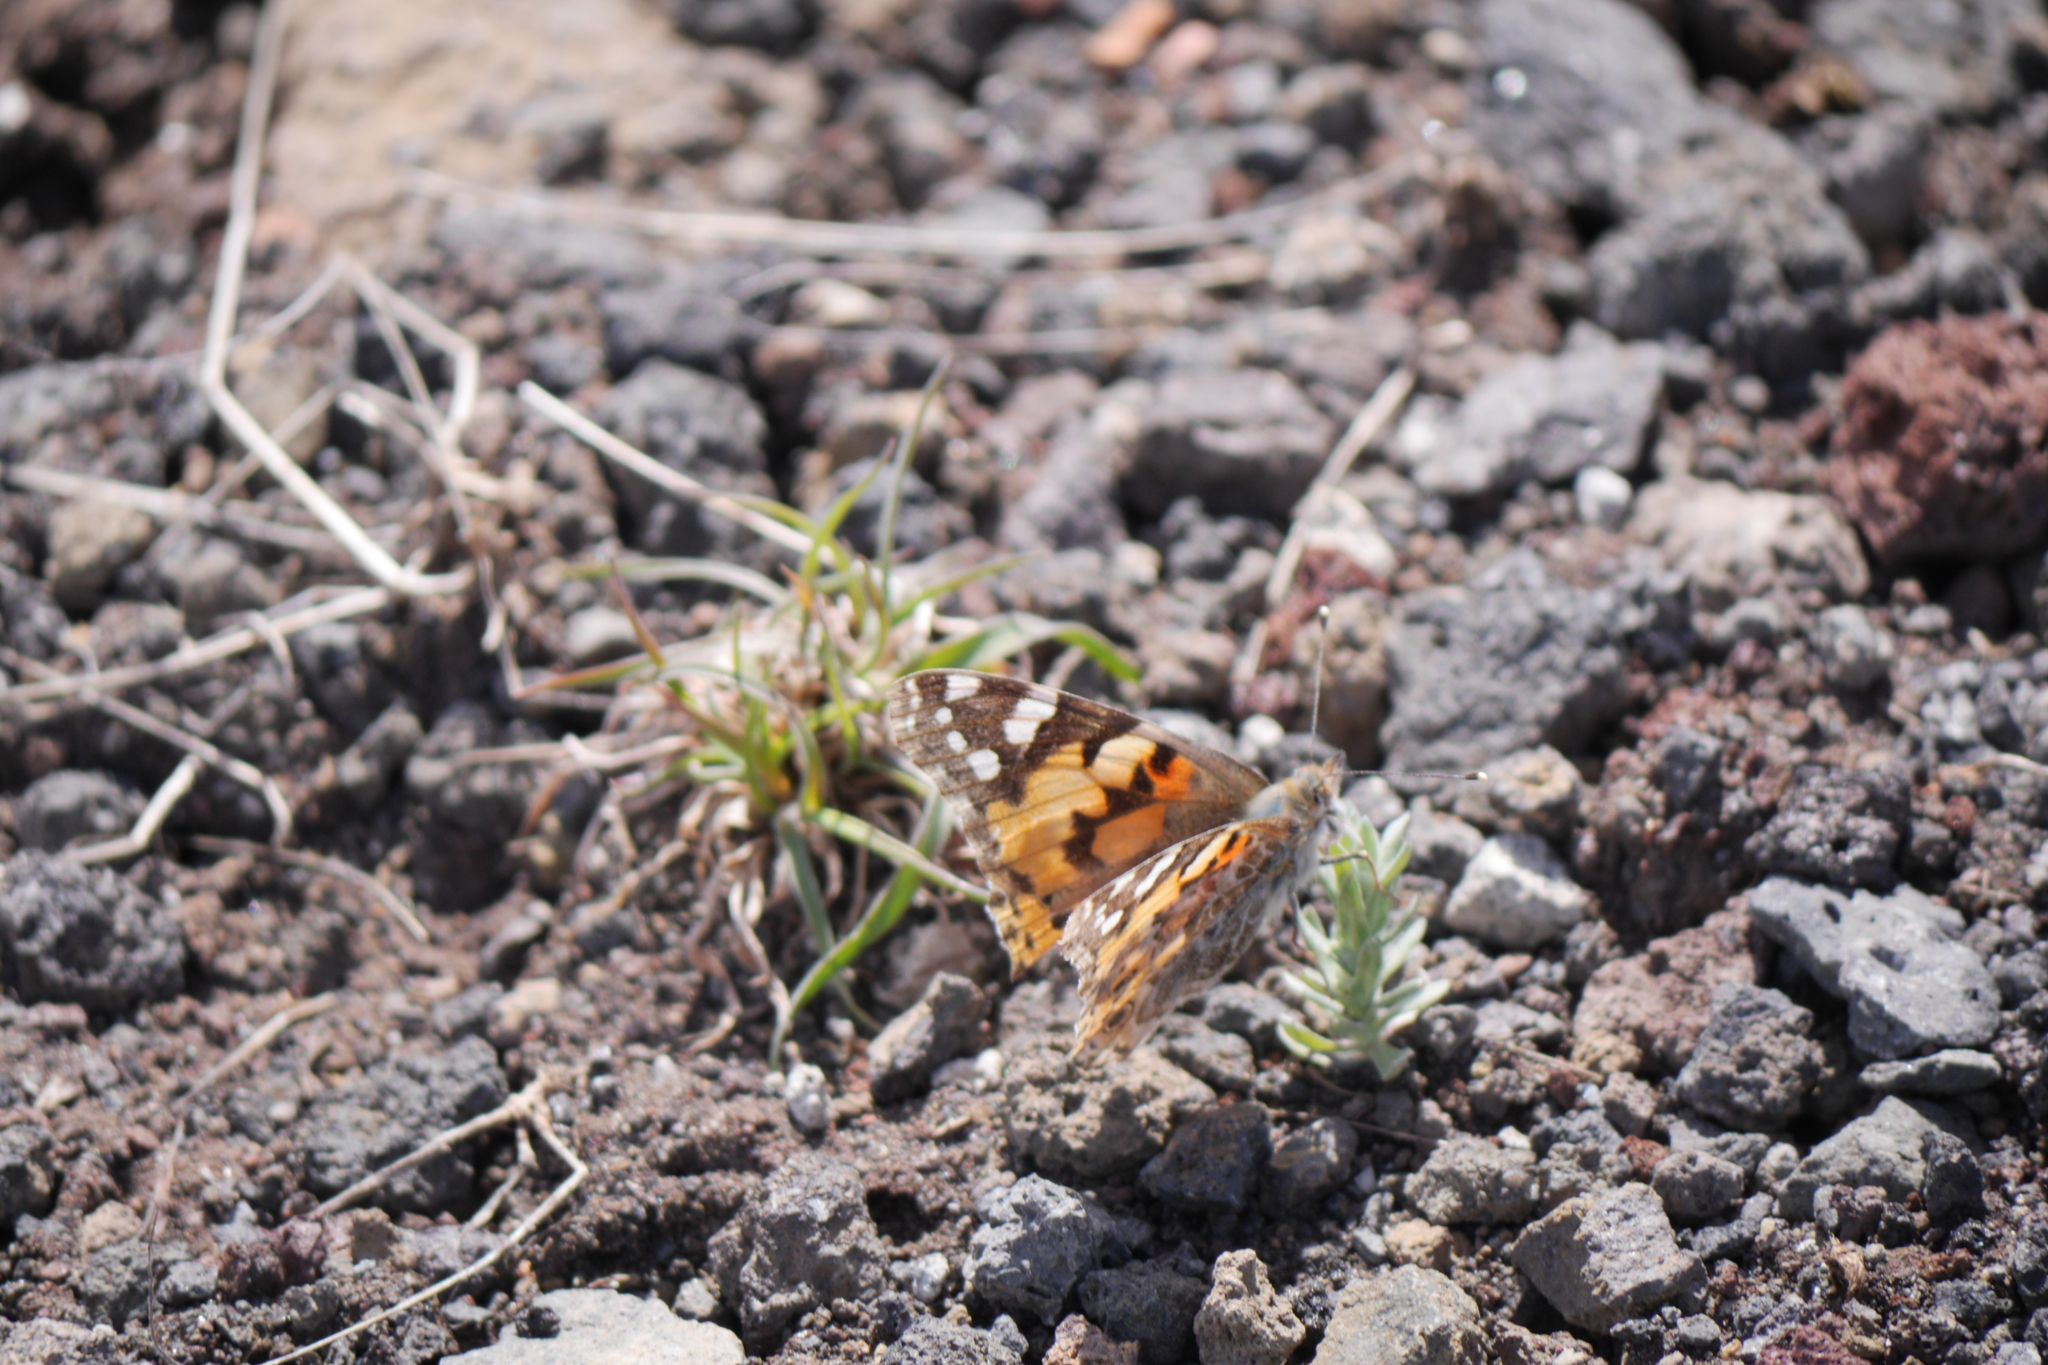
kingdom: Animalia
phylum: Arthropoda
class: Insecta
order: Lepidoptera
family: Nymphalidae
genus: Vanessa
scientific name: Vanessa cardui
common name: Painted lady
